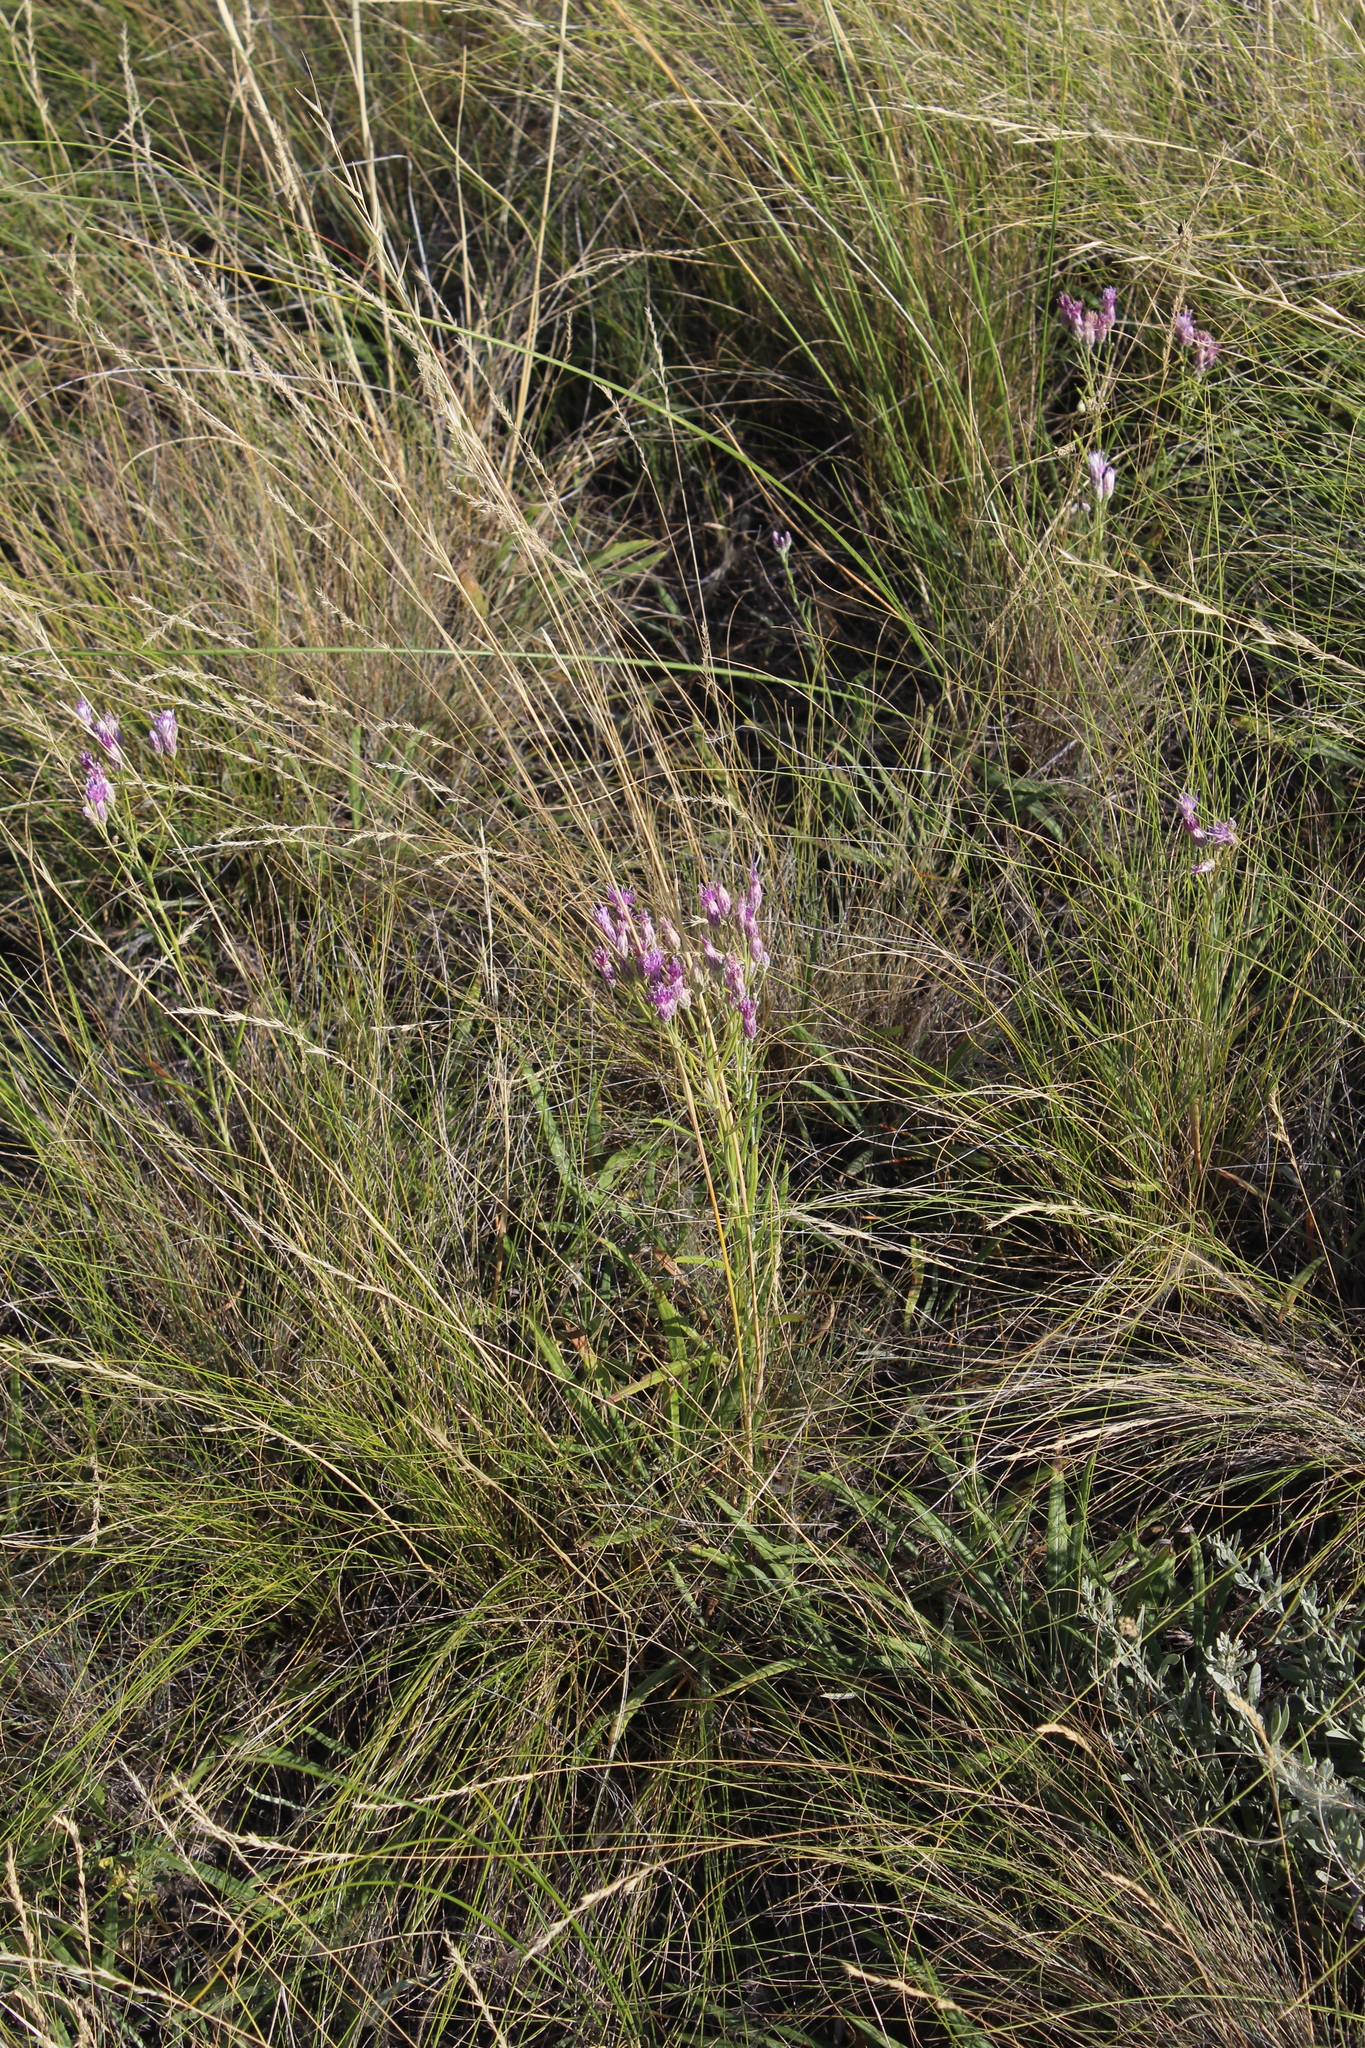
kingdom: Plantae
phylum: Tracheophyta
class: Magnoliopsida
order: Asterales
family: Asteraceae
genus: Jurinea
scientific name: Jurinea multiflora
